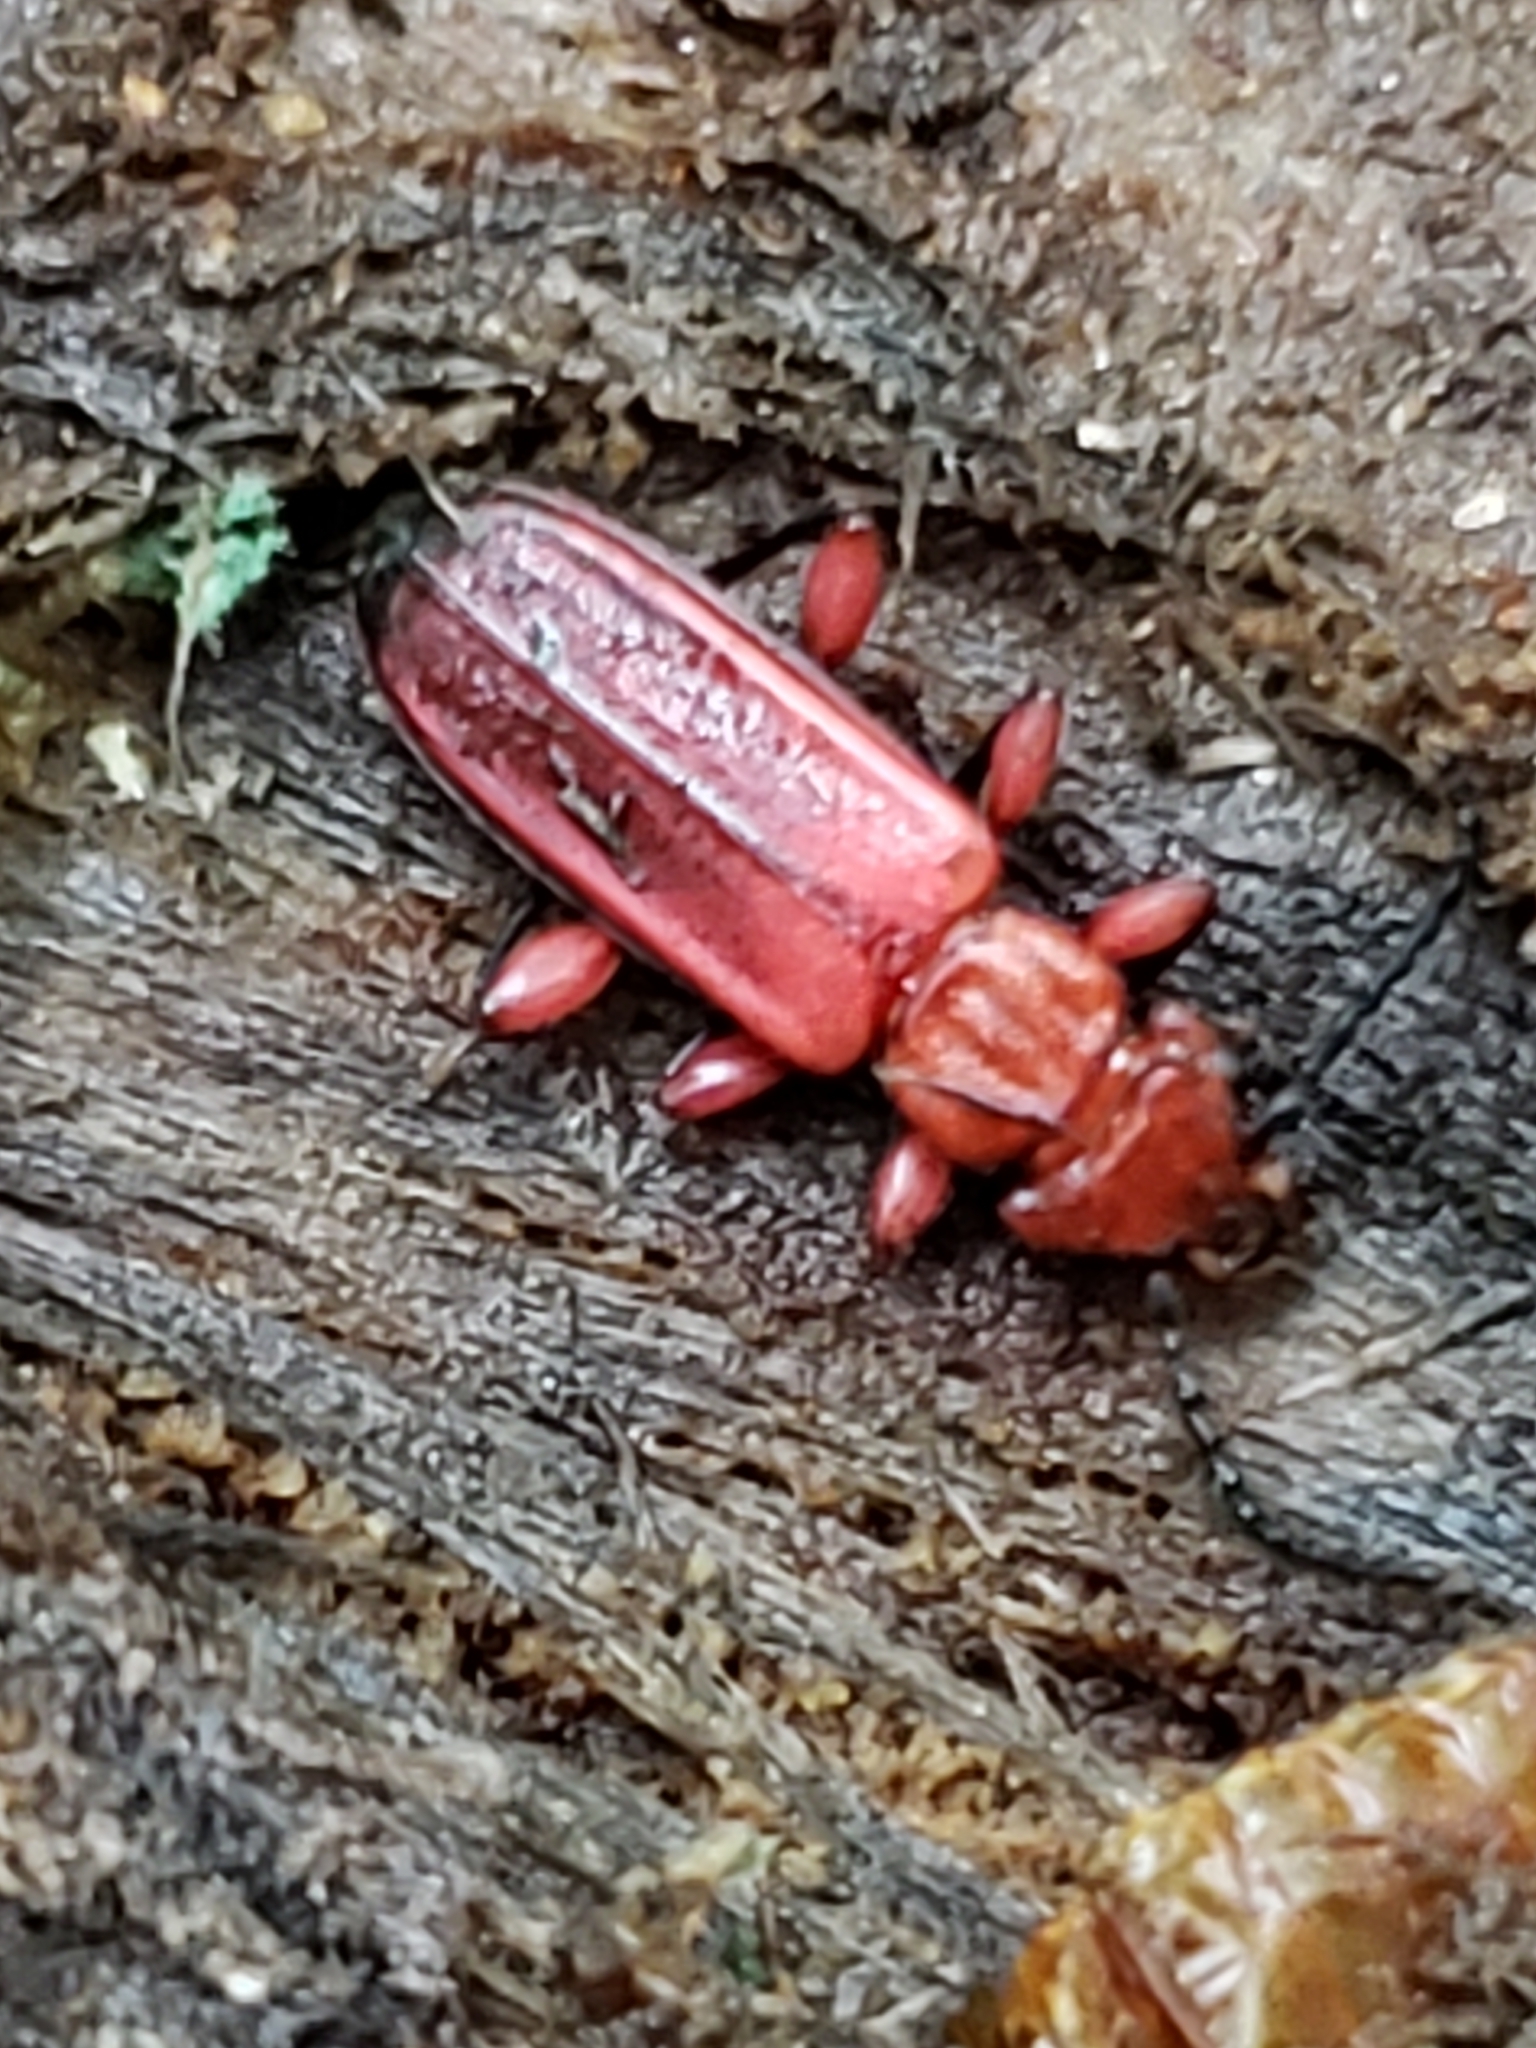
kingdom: Animalia
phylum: Arthropoda
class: Insecta
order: Coleoptera
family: Cucujidae
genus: Cucujus
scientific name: Cucujus clavipes
